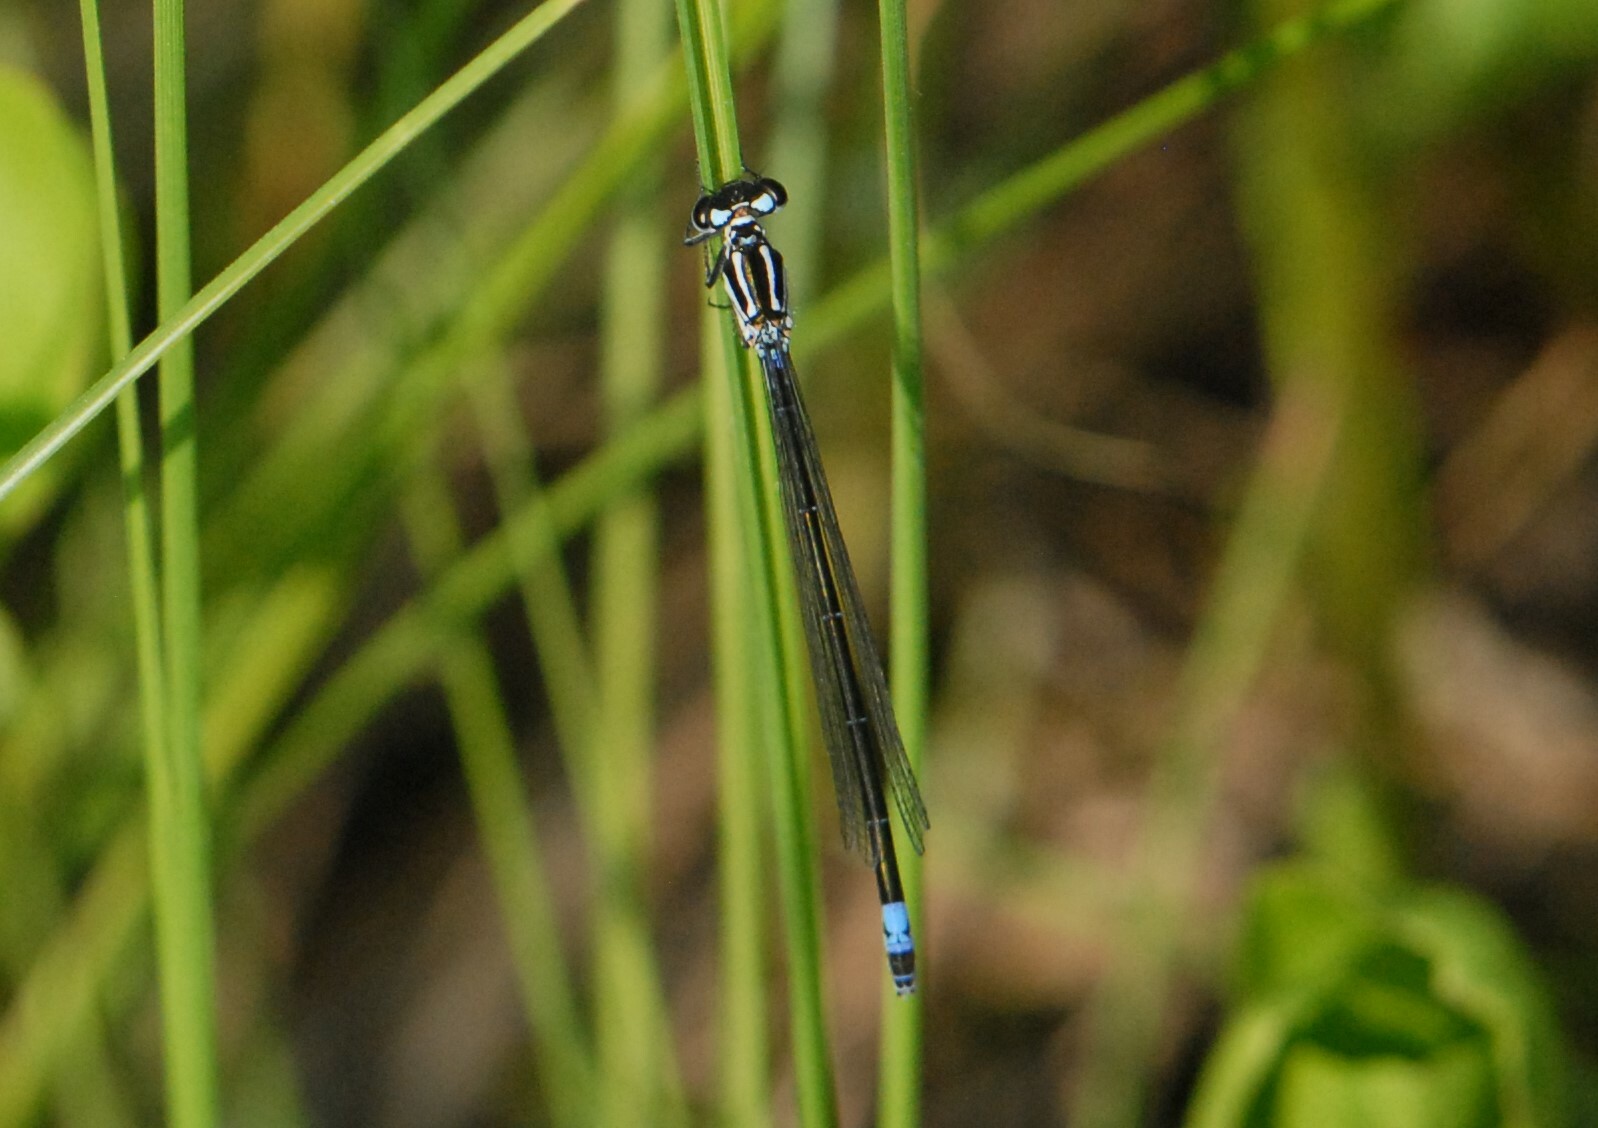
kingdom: Animalia
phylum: Arthropoda
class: Insecta
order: Odonata
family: Coenagrionidae
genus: Coenagrion
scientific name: Coenagrion pulchellum
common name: Variable bluet
